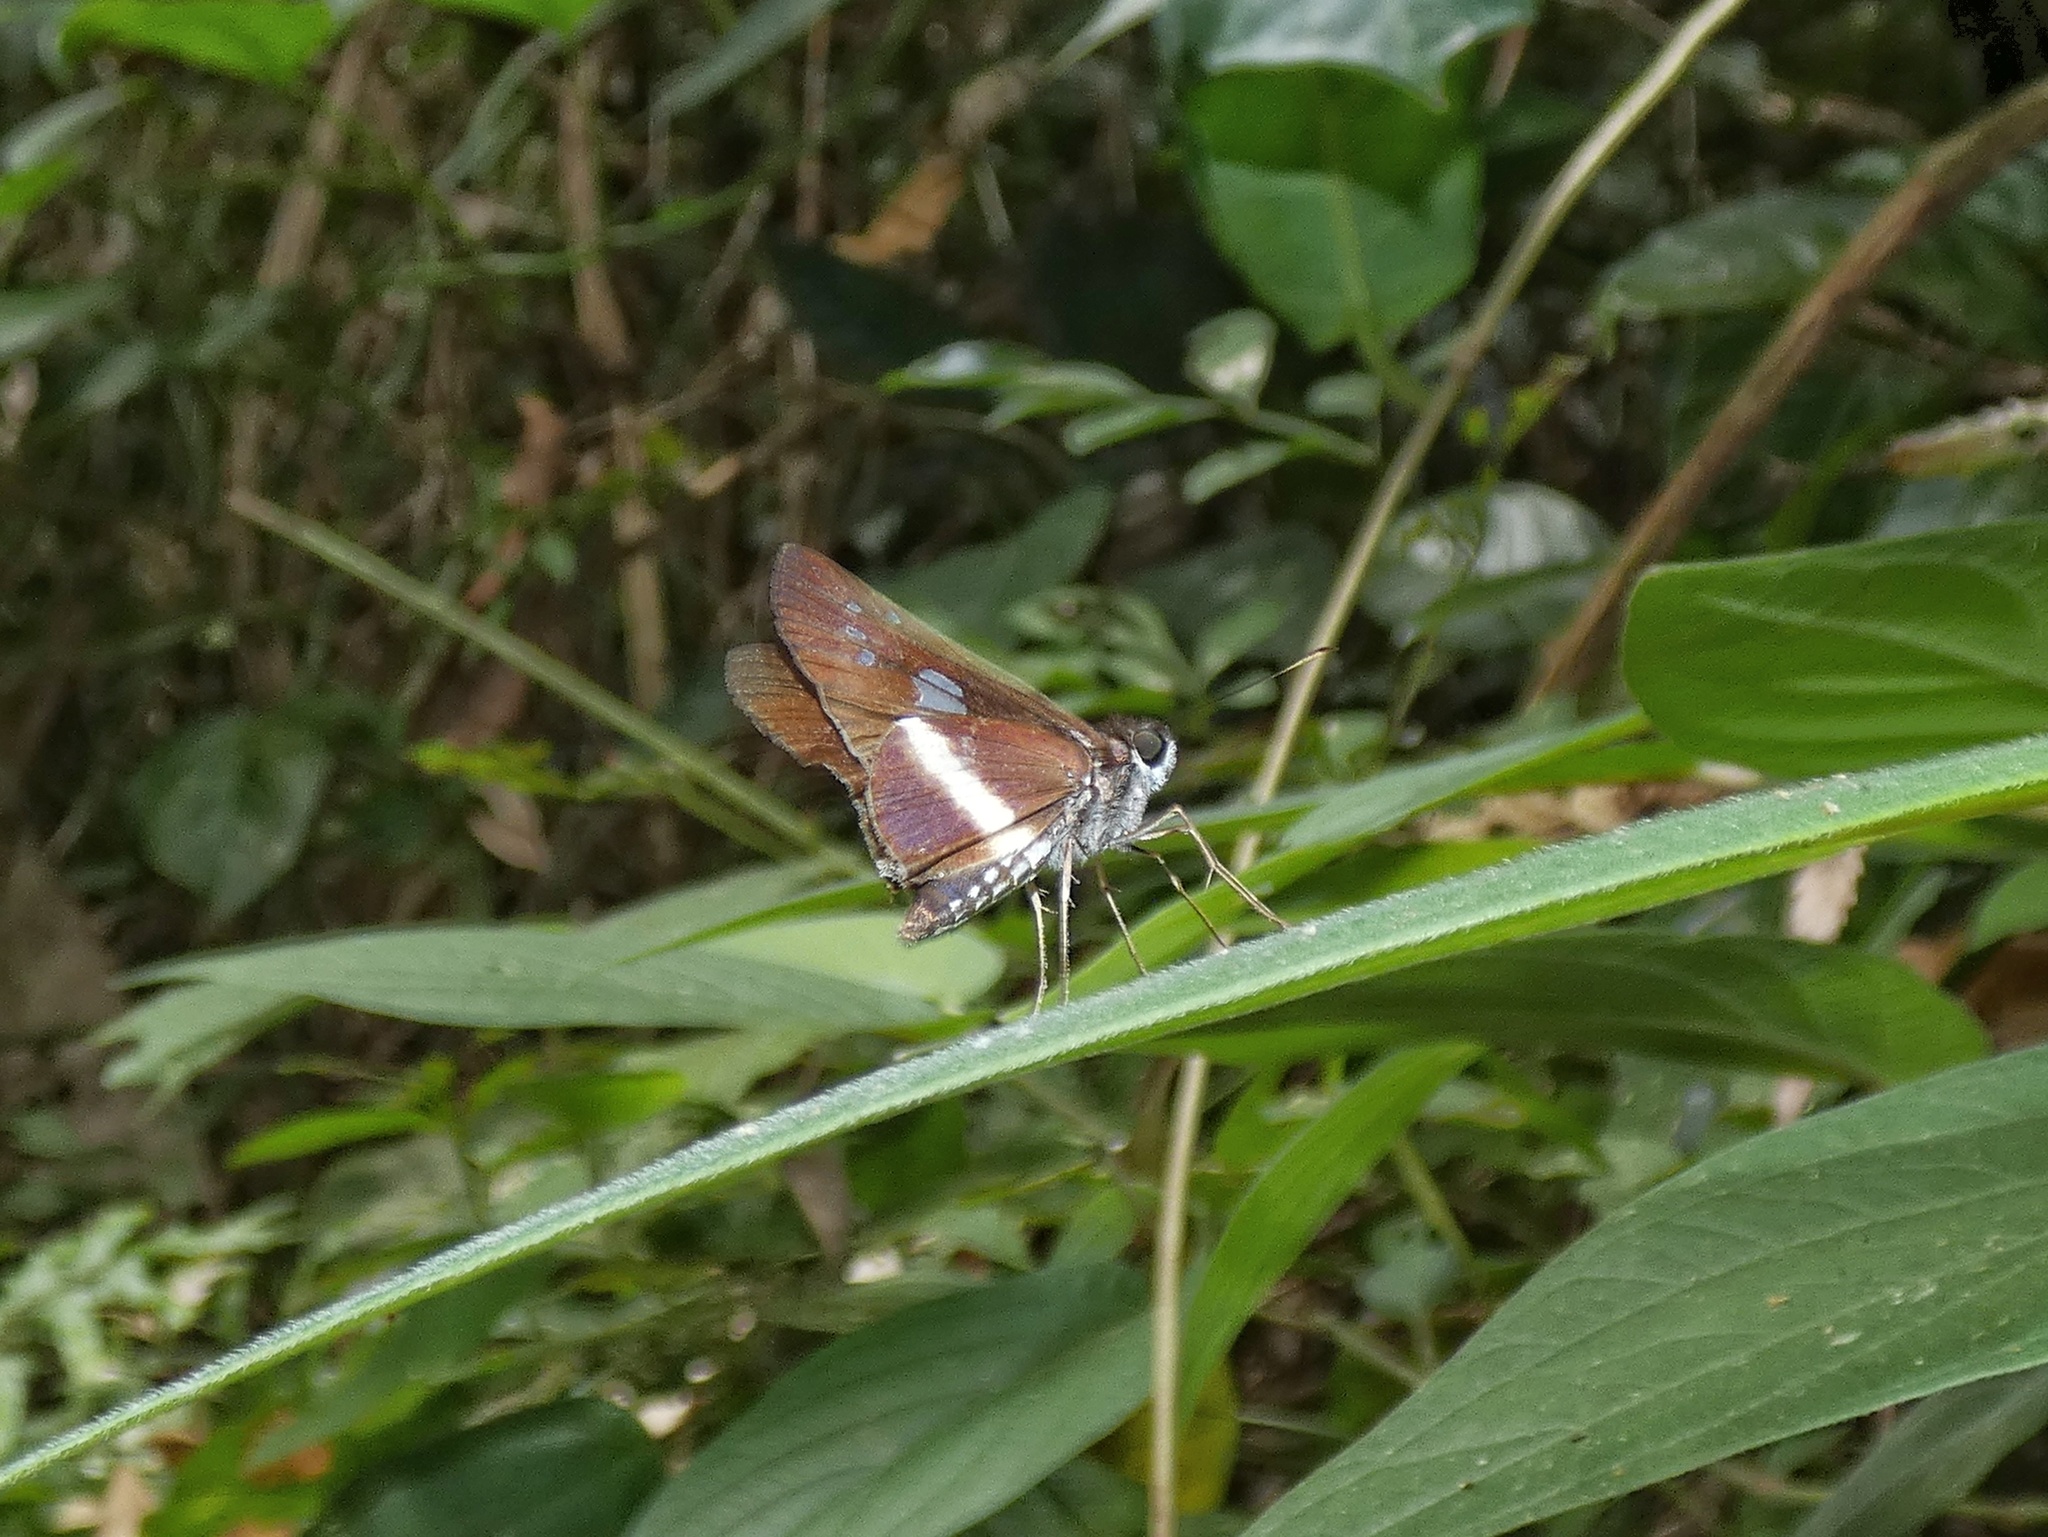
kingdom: Animalia
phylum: Arthropoda
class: Insecta
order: Lepidoptera
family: Hesperiidae
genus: Zenis
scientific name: Zenis jebus
